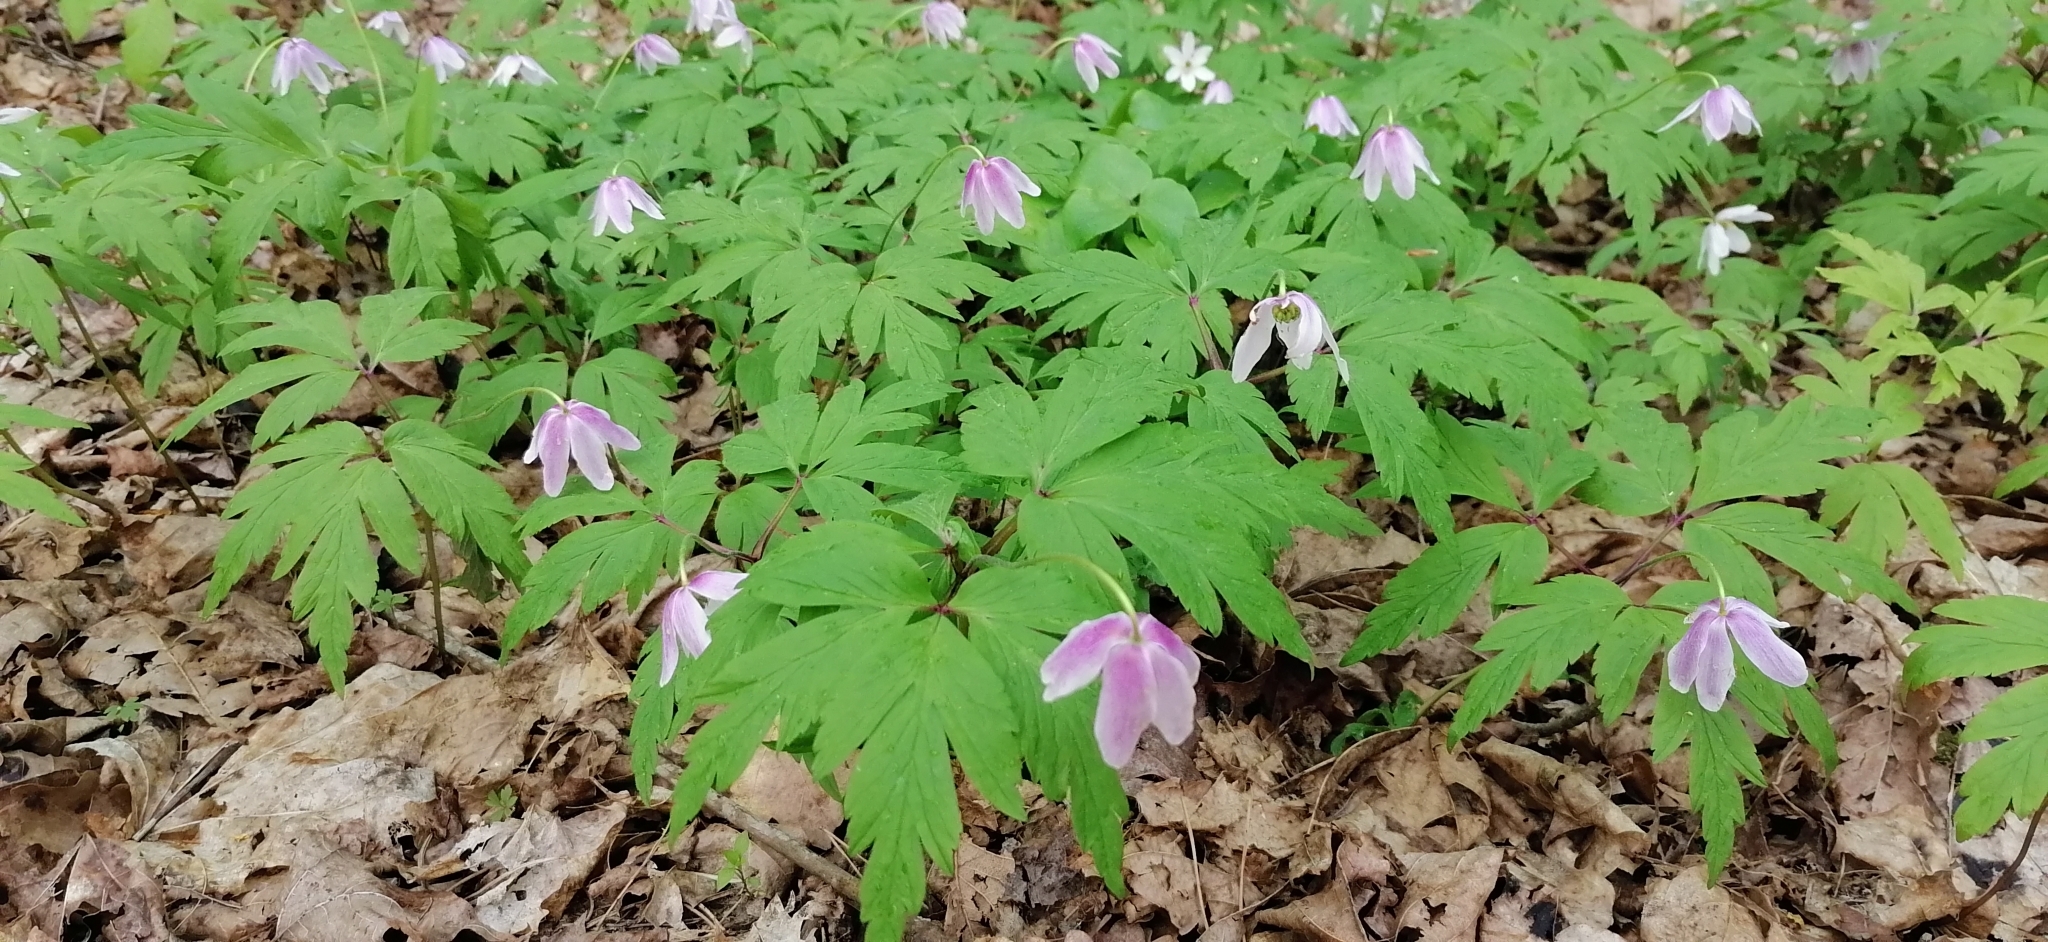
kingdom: Plantae
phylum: Tracheophyta
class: Magnoliopsida
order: Ranunculales
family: Ranunculaceae
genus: Anemone
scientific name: Anemone nemorosa
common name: Wood anemone
